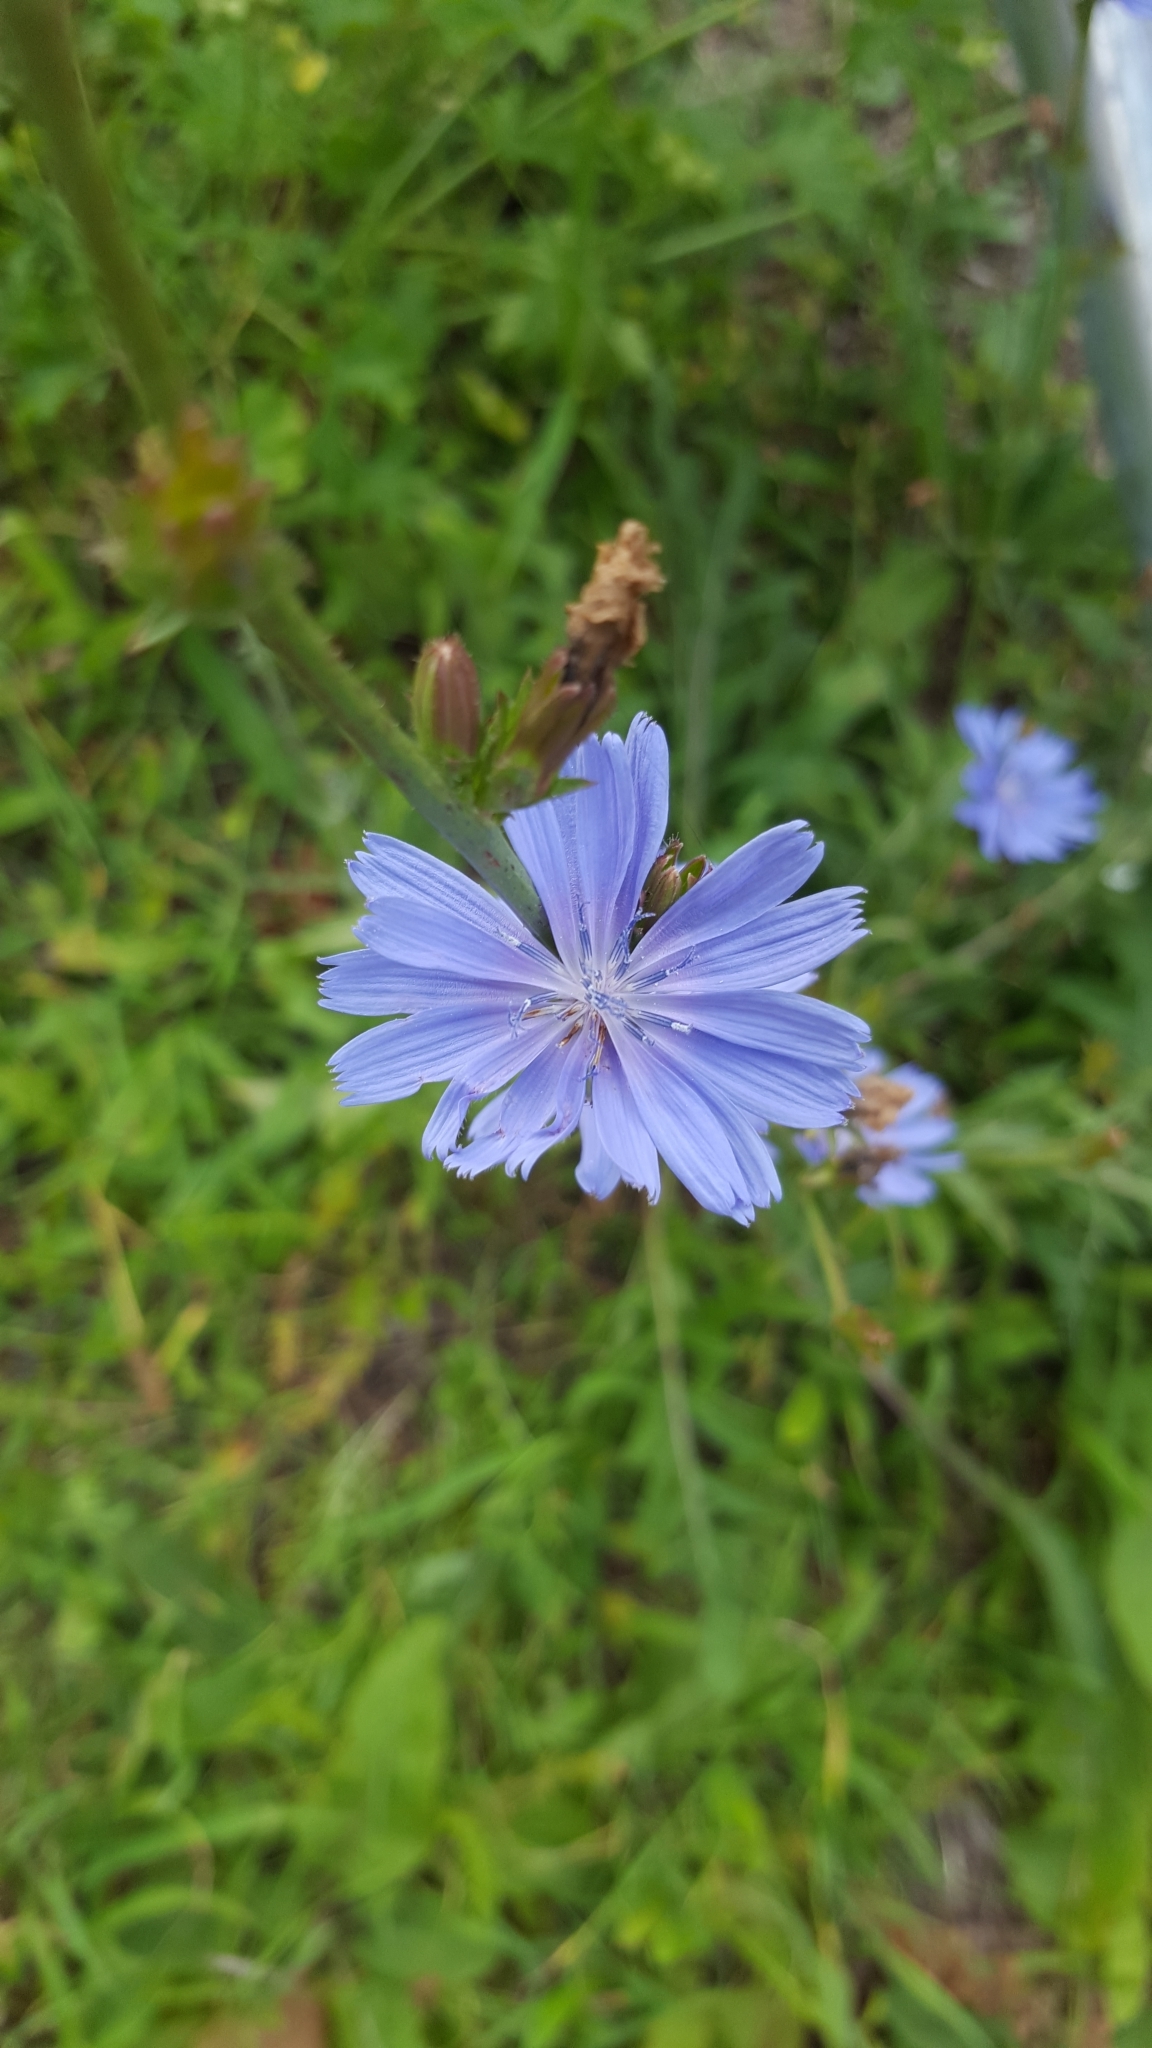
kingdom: Plantae
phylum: Tracheophyta
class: Magnoliopsida
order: Asterales
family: Asteraceae
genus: Cichorium
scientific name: Cichorium intybus
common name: Chicory
